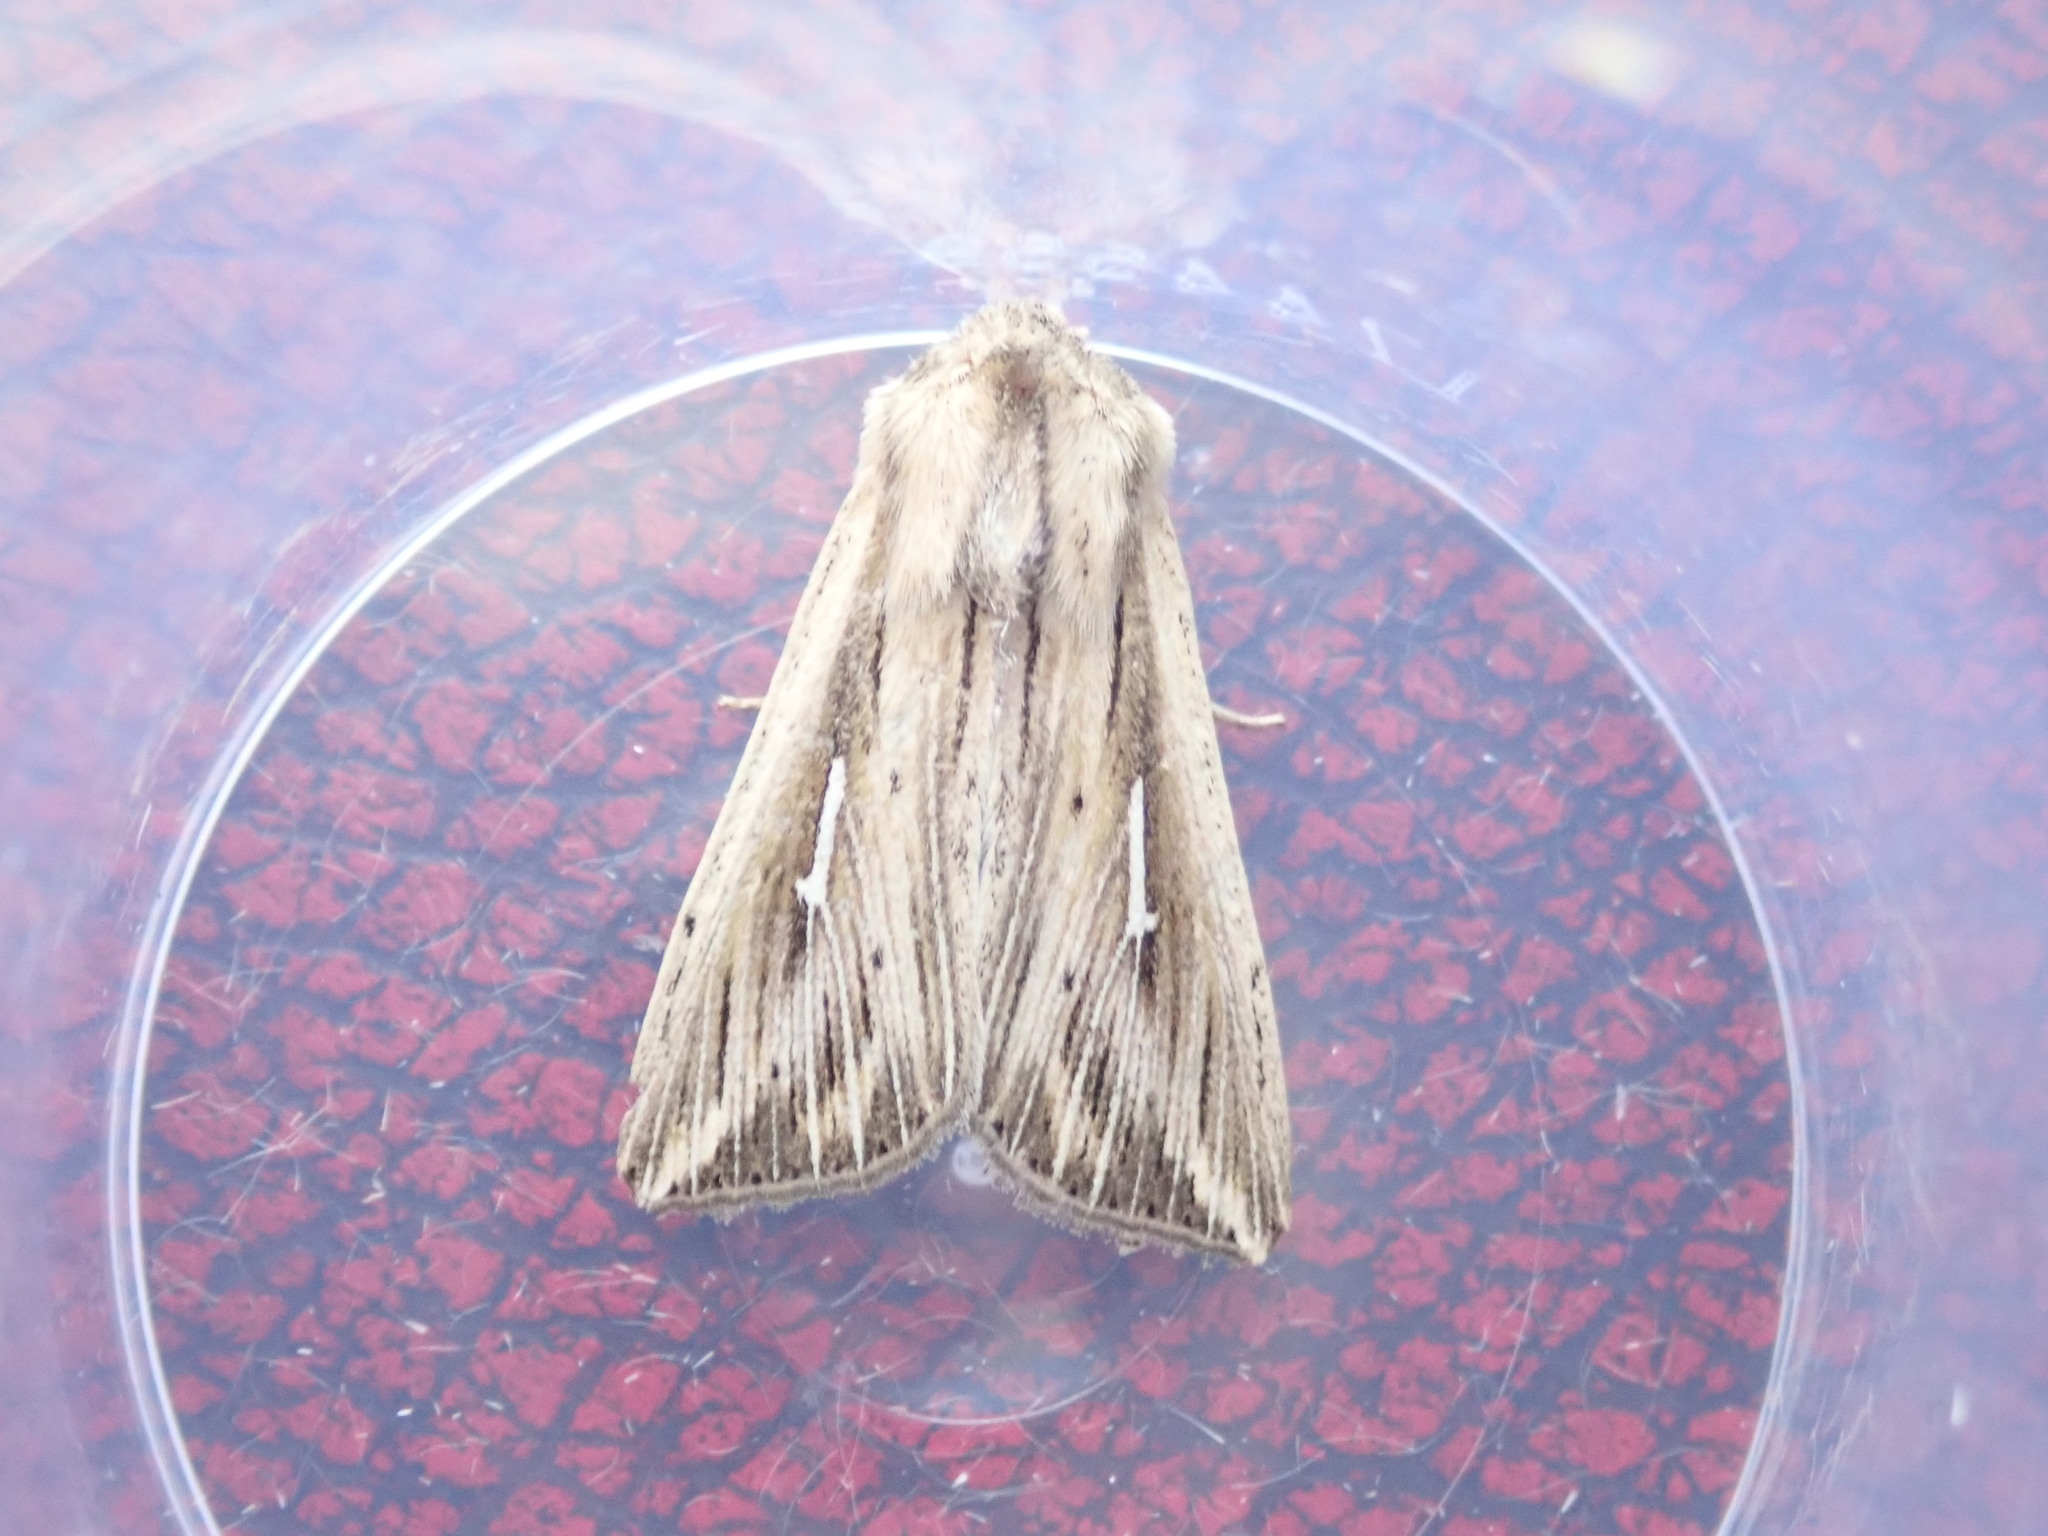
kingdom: Animalia
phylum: Arthropoda
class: Insecta
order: Lepidoptera
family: Noctuidae
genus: Mythimna
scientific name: Mythimna l-album
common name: L-album wainscot
